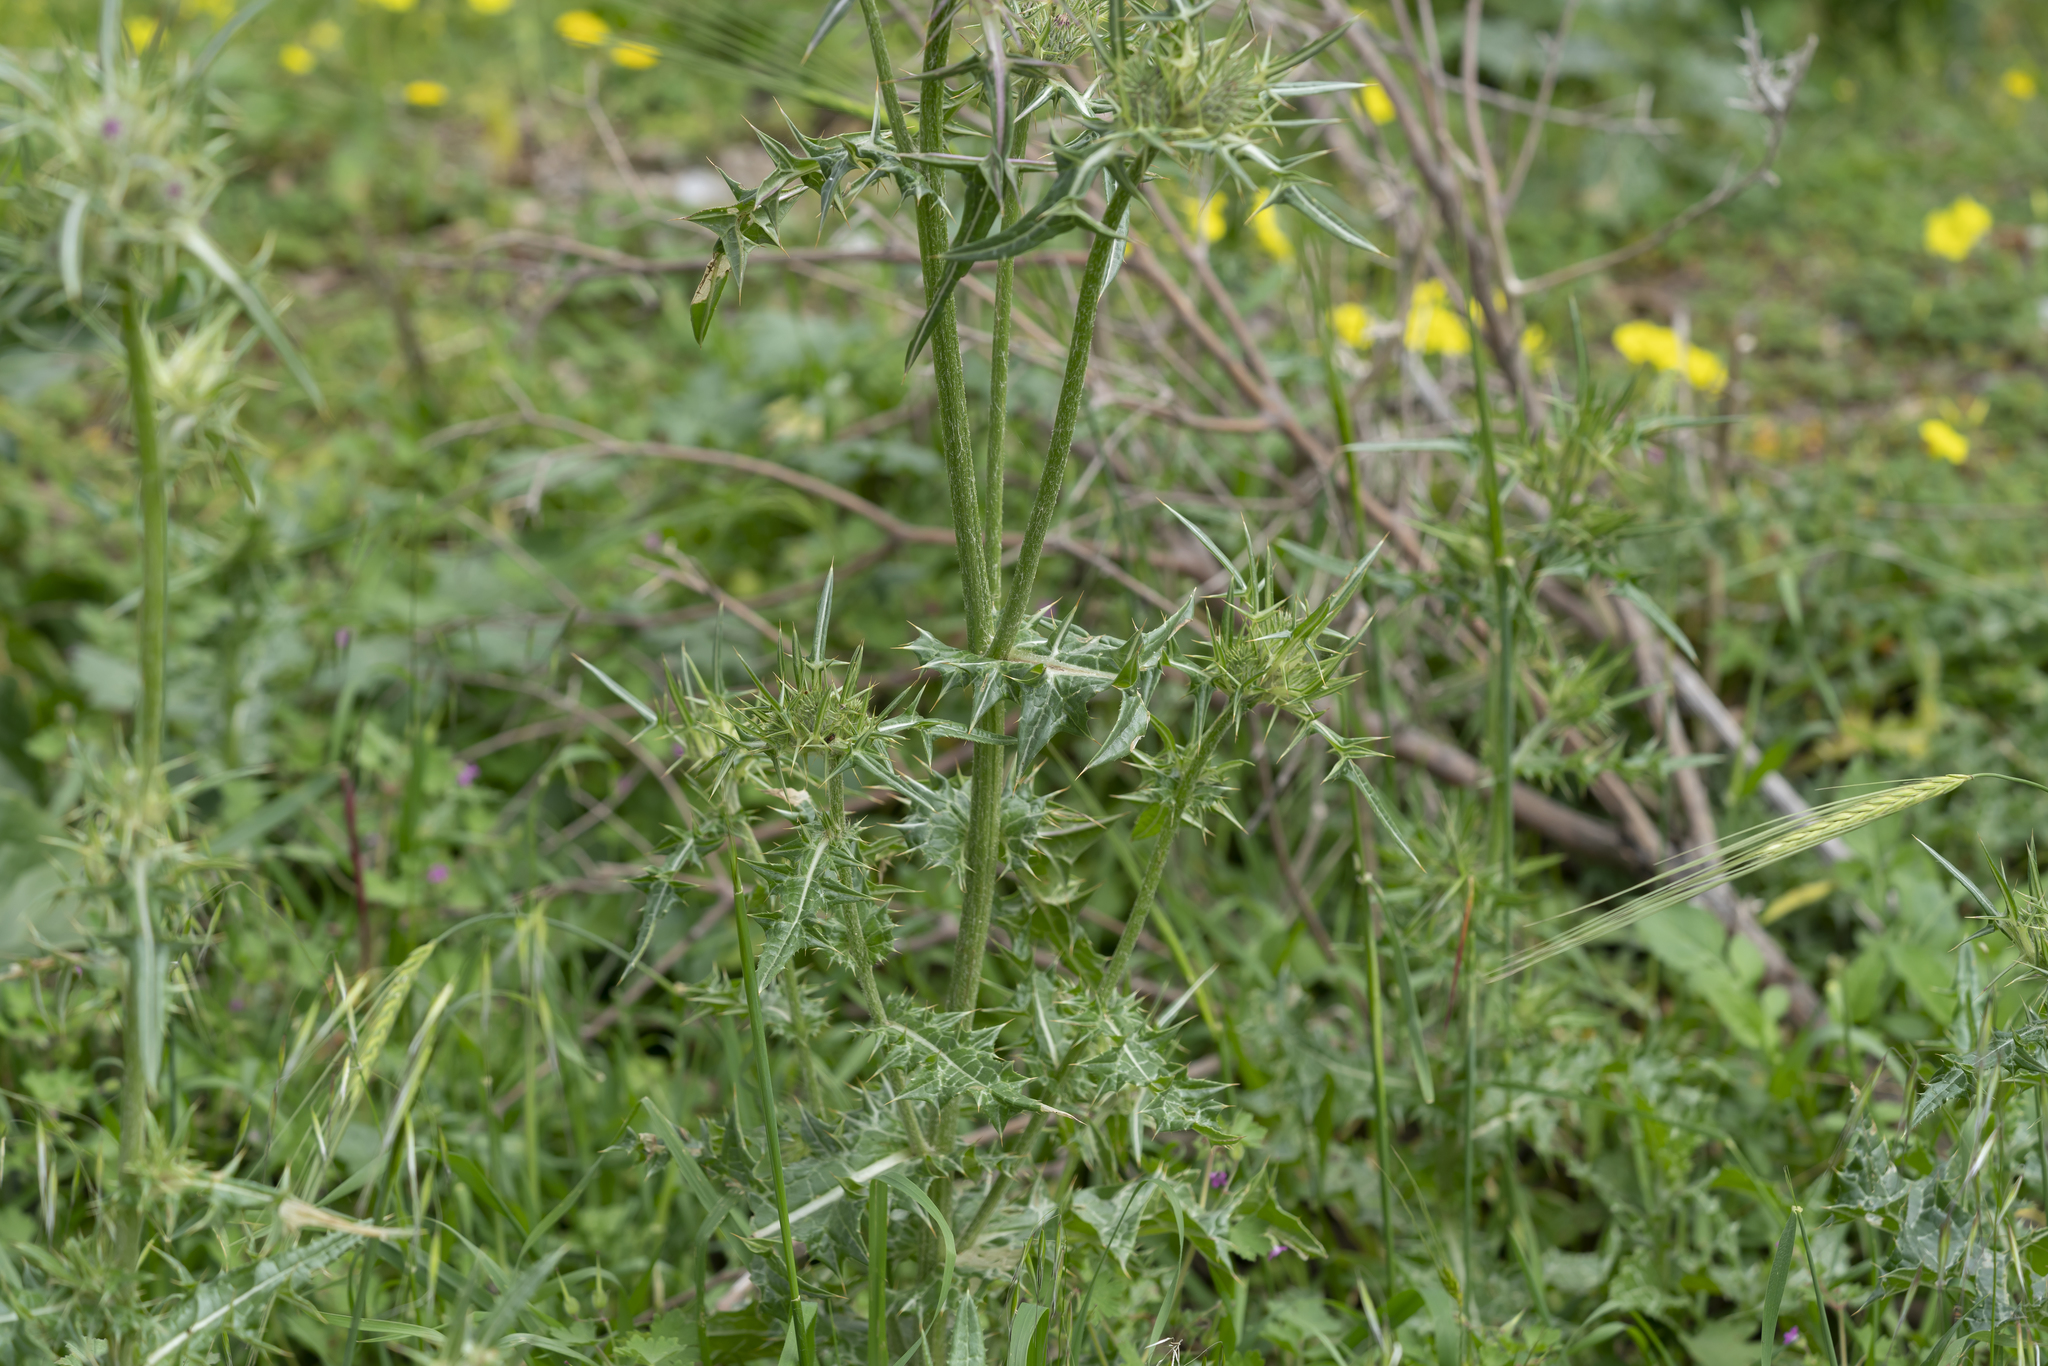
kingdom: Plantae
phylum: Tracheophyta
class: Magnoliopsida
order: Asterales
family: Asteraceae
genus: Notobasis
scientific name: Notobasis syriaca
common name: Syrian thistle
